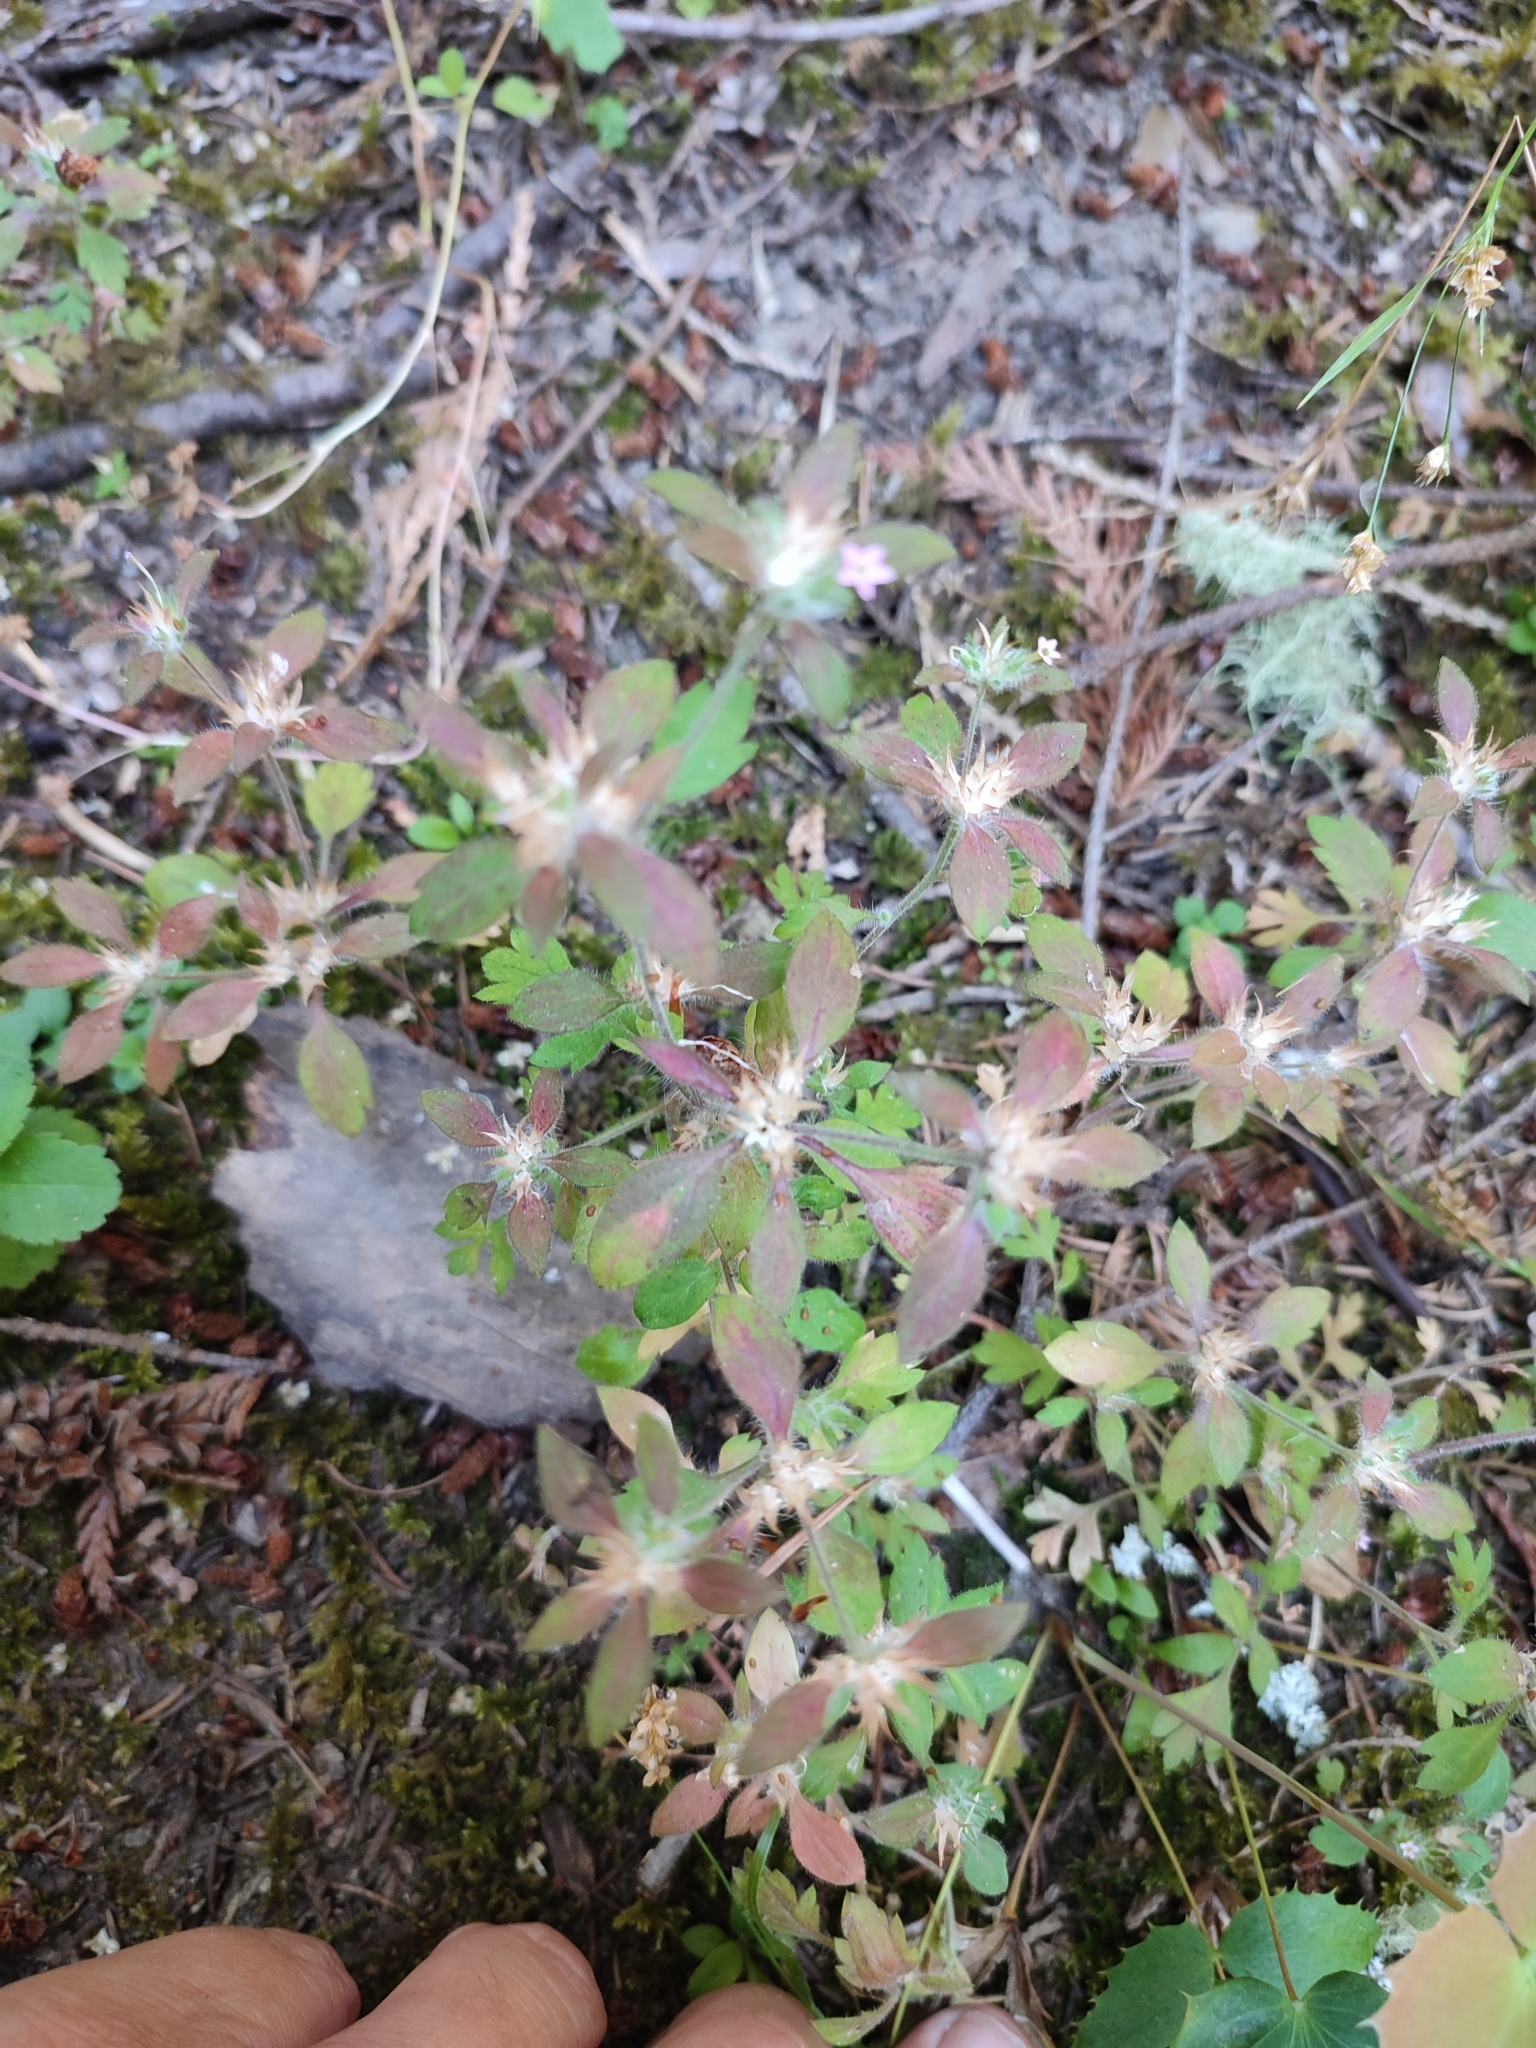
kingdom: Plantae
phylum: Tracheophyta
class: Magnoliopsida
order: Ericales
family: Polemoniaceae
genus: Collomia
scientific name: Collomia heterophylla
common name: Variable-leaved collomia
